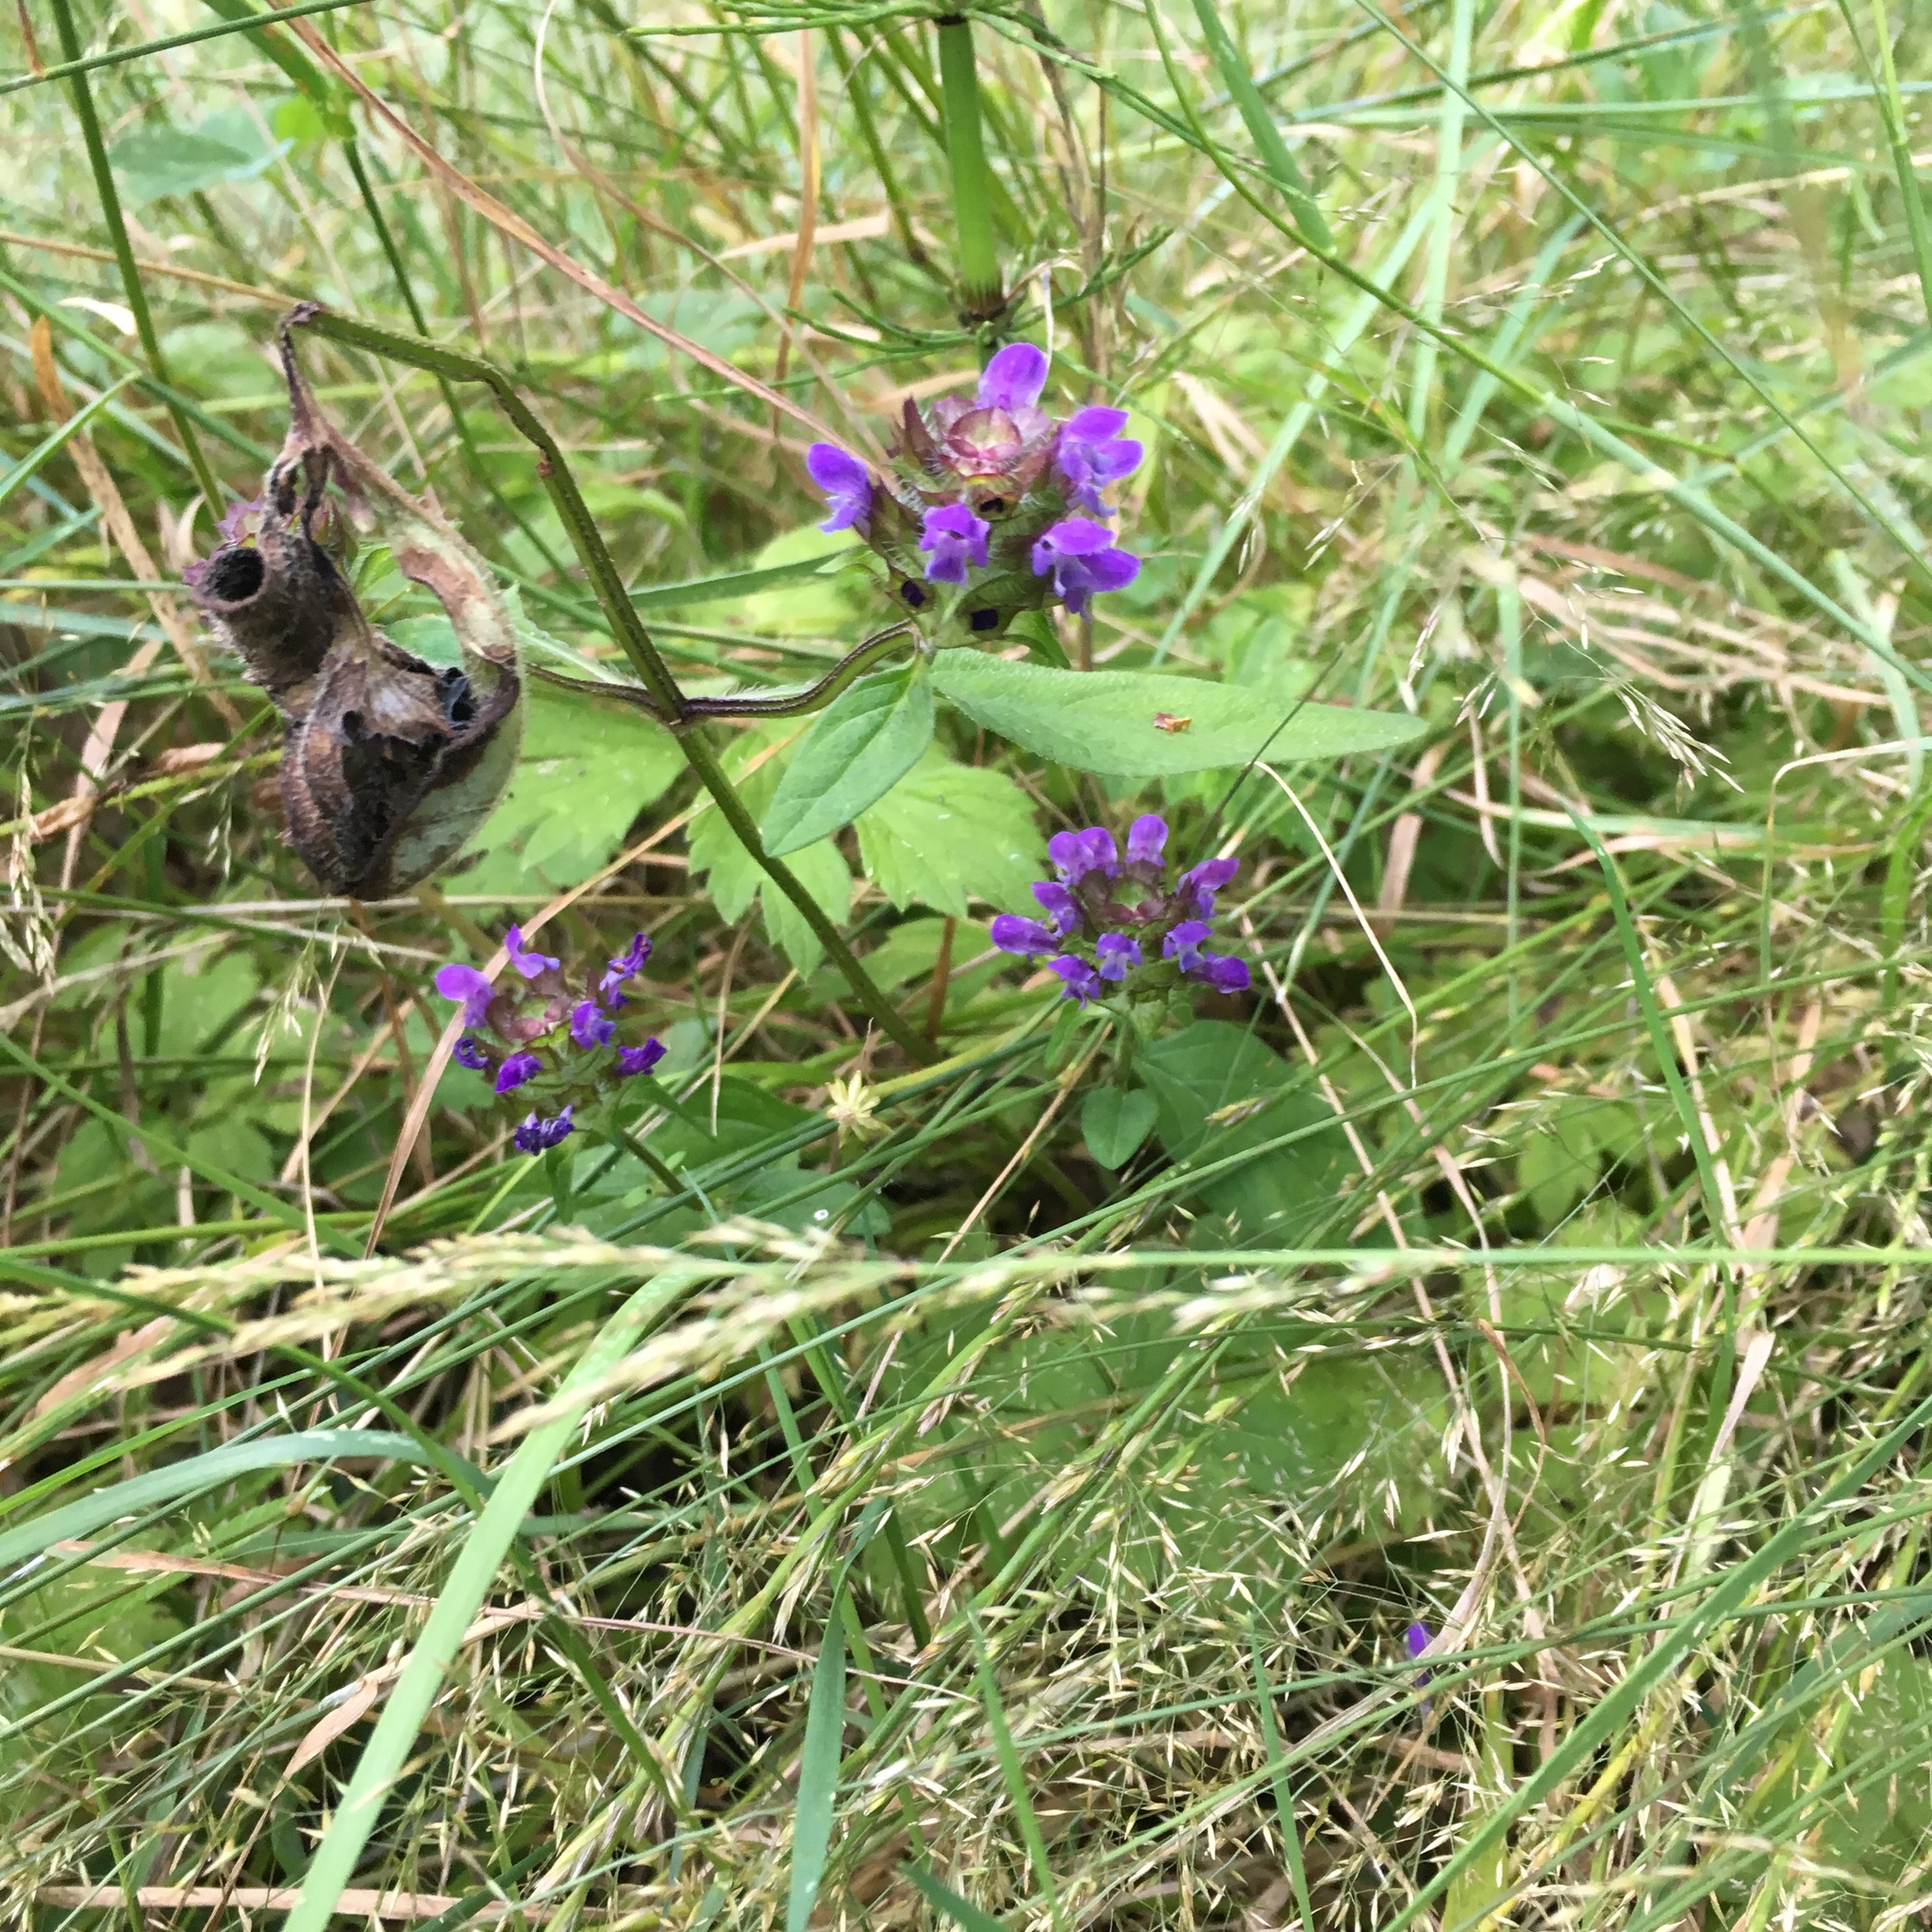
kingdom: Plantae
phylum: Tracheophyta
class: Magnoliopsida
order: Lamiales
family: Lamiaceae
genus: Prunella
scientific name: Prunella vulgaris
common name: Heal-all
